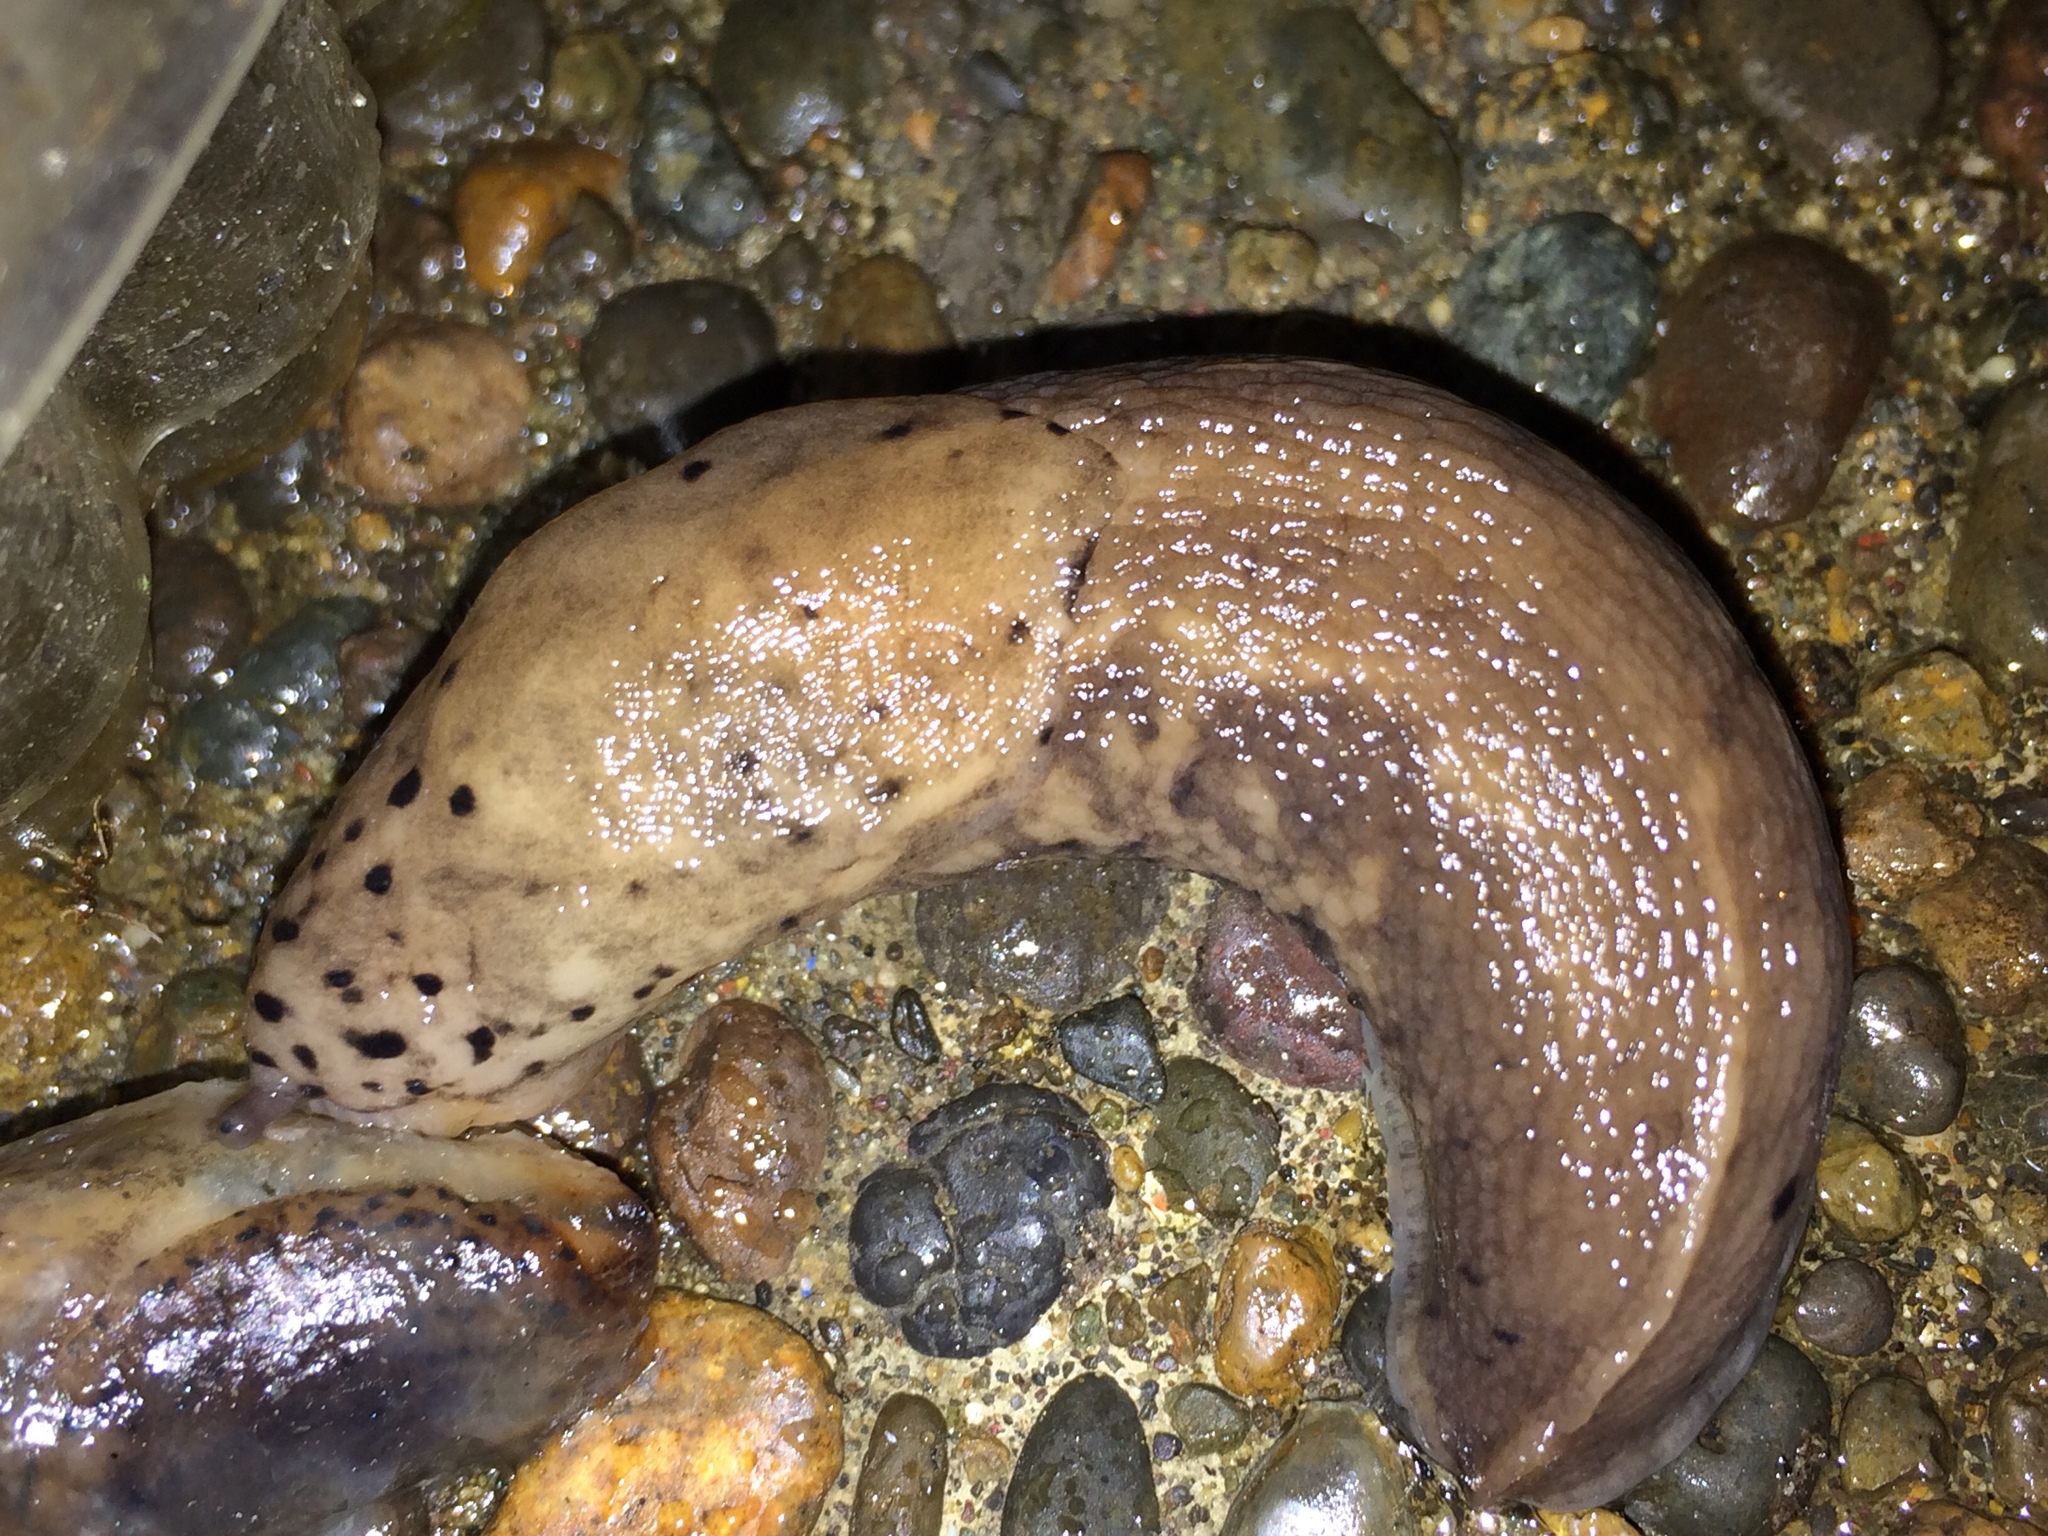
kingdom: Animalia
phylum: Mollusca
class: Gastropoda
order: Stylommatophora
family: Limacidae
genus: Limax
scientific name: Limax maximus
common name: Great grey slug
